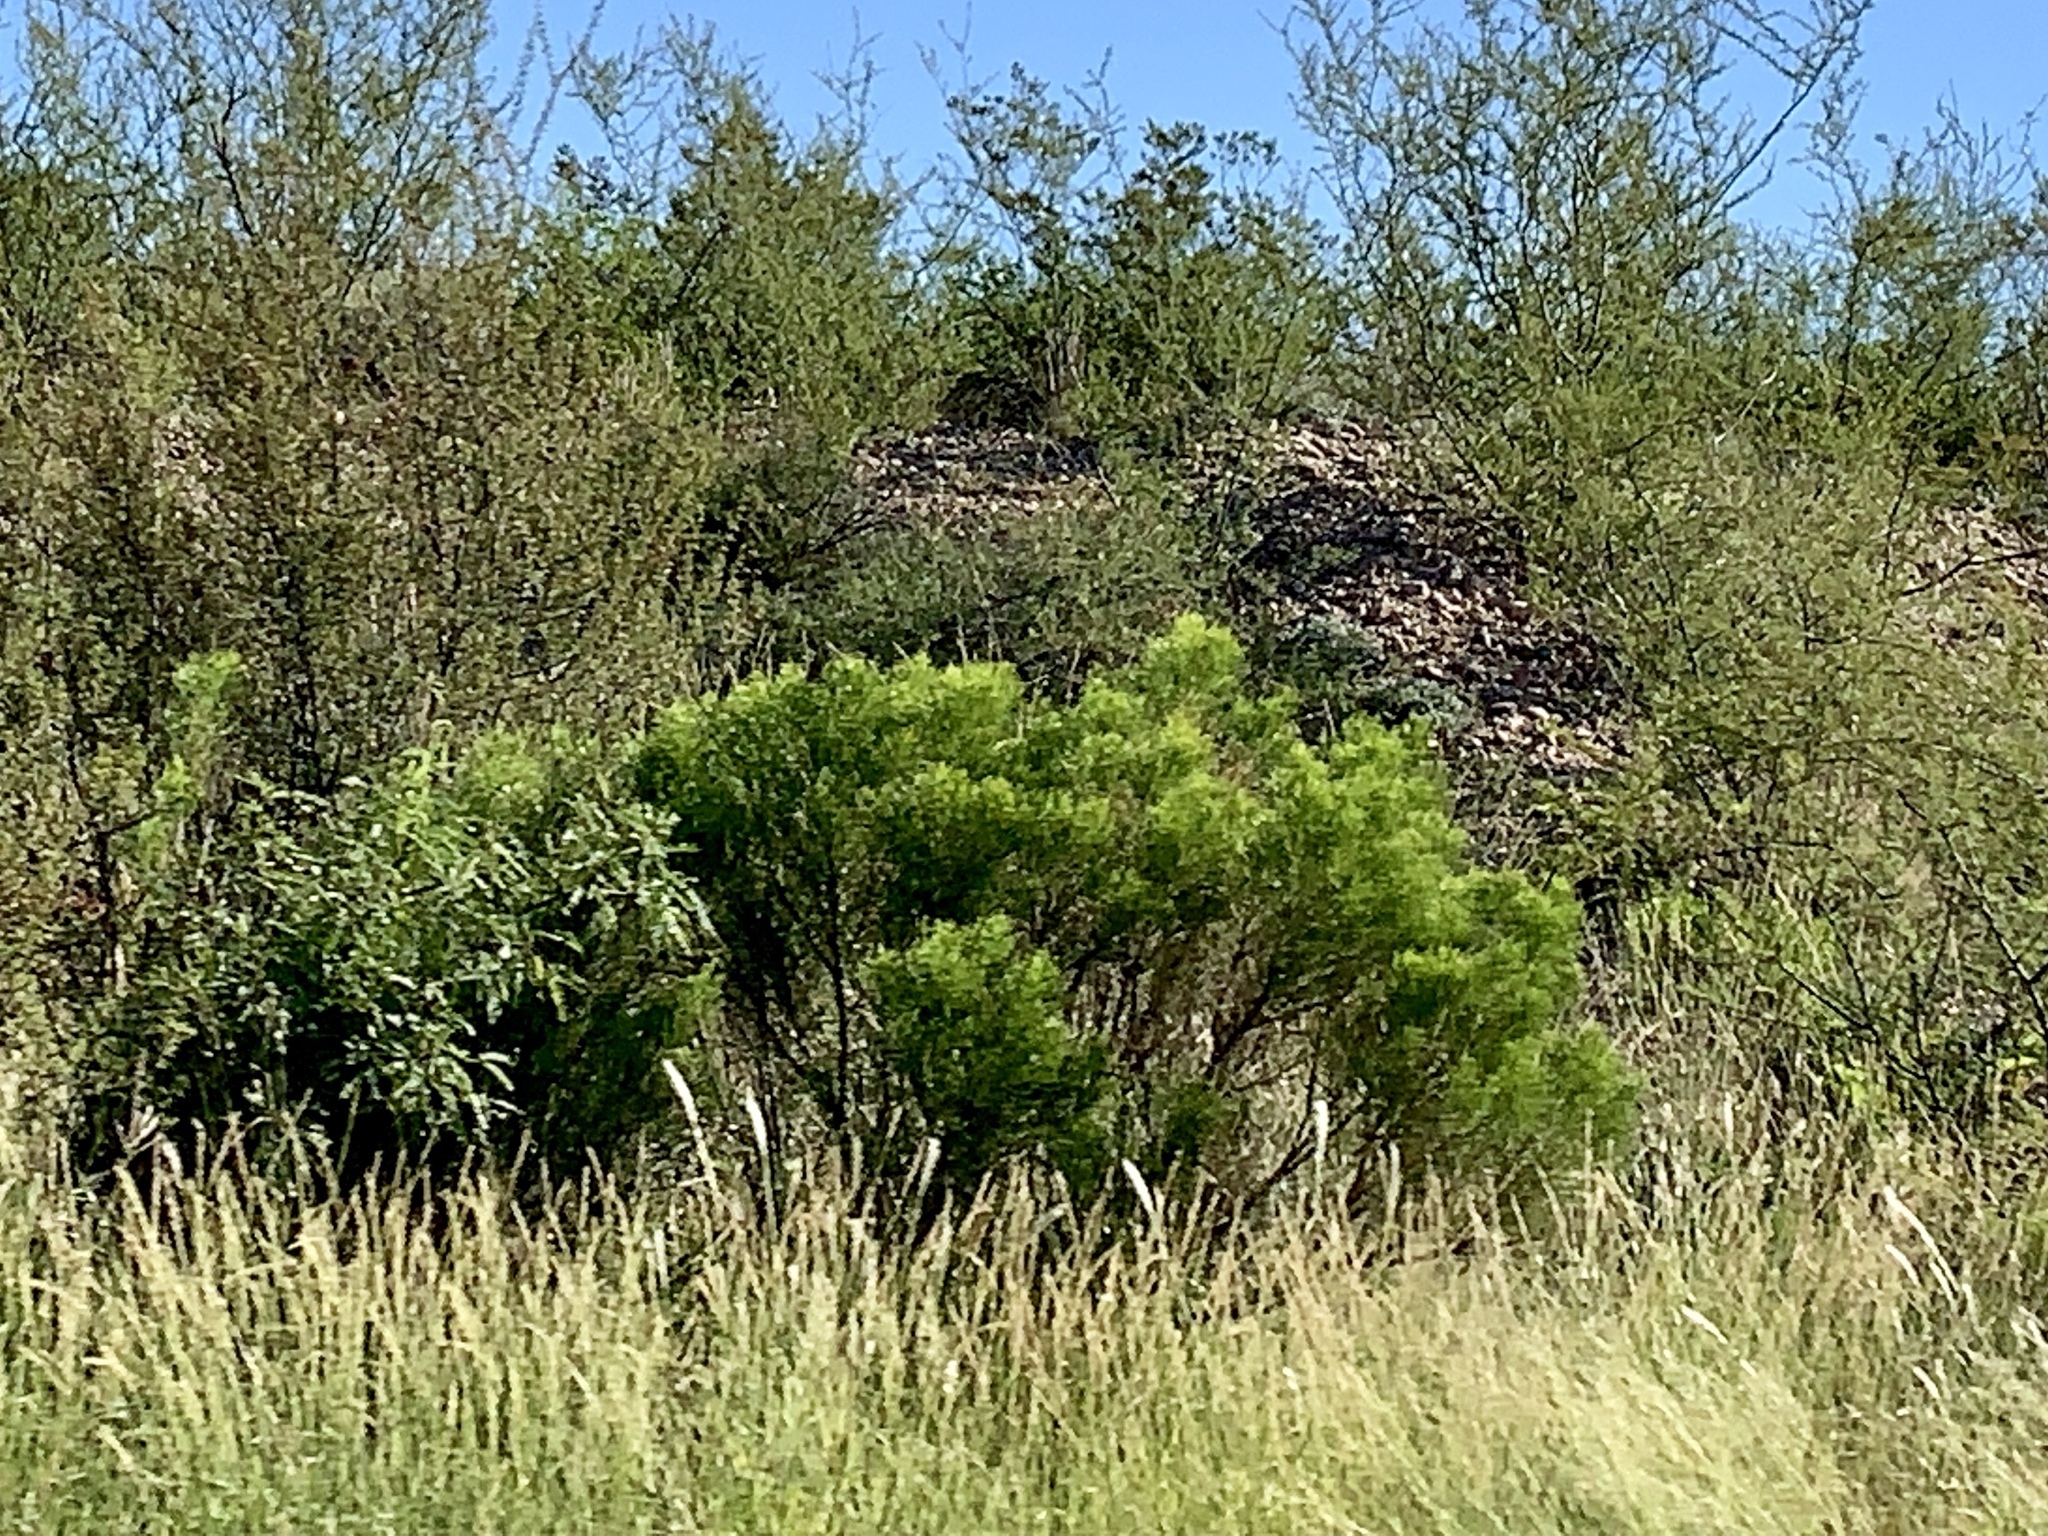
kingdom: Plantae
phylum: Tracheophyta
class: Magnoliopsida
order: Asterales
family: Asteraceae
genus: Baccharis
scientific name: Baccharis sarothroides
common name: Desert-broom
